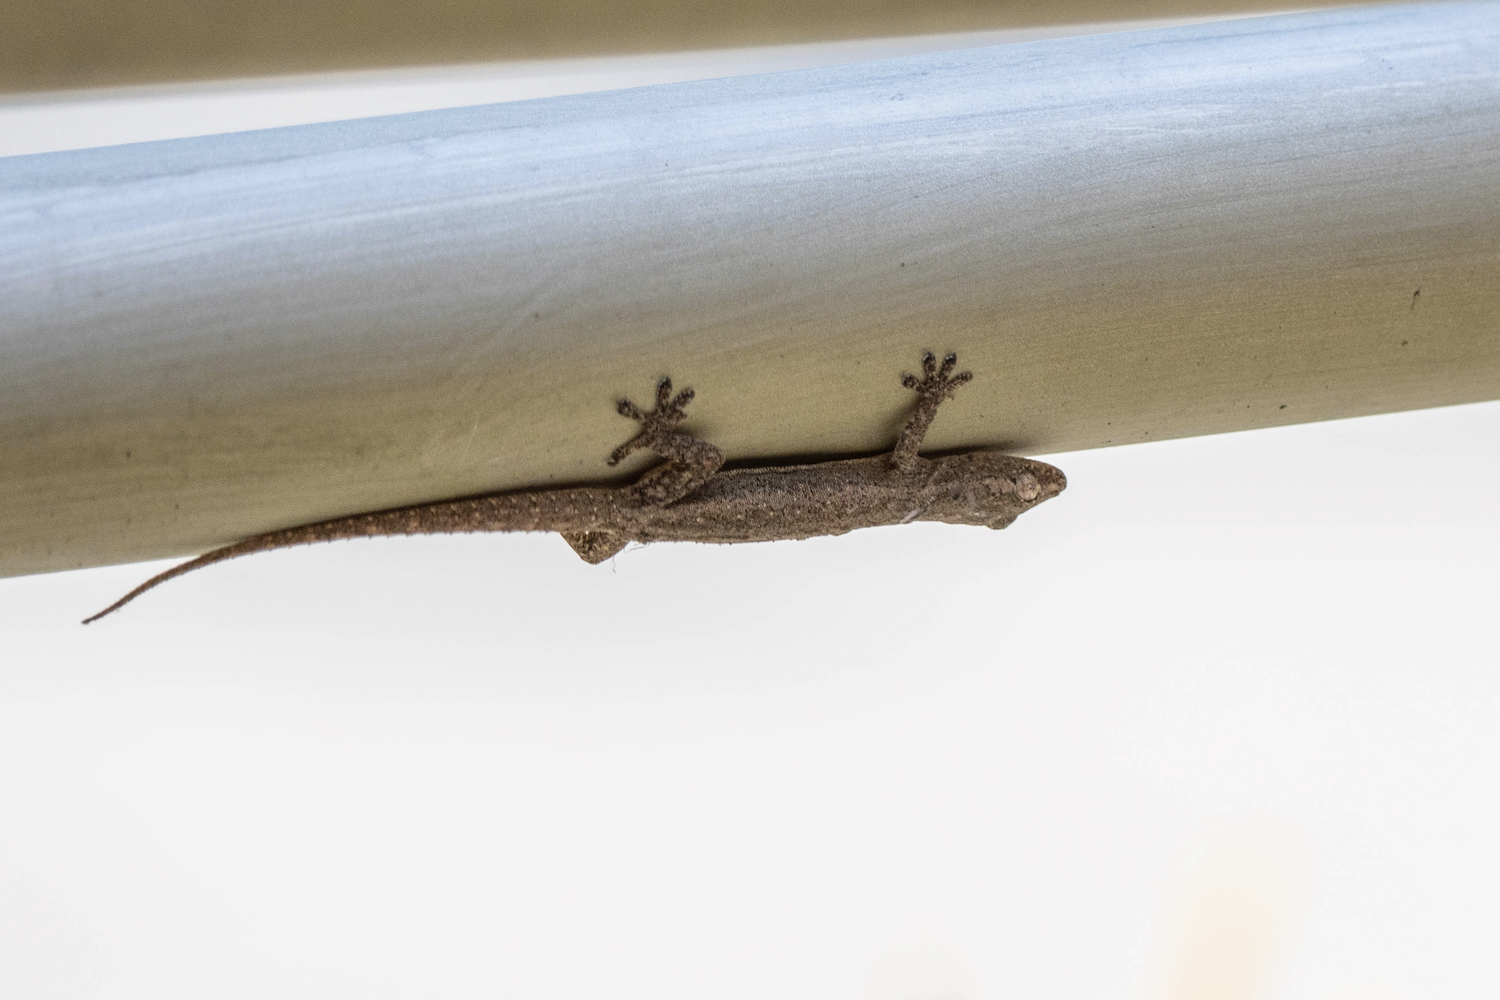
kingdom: Animalia
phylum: Chordata
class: Squamata
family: Gekkonidae
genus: Hemidactylus
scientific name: Hemidactylus frenatus
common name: Common house gecko
